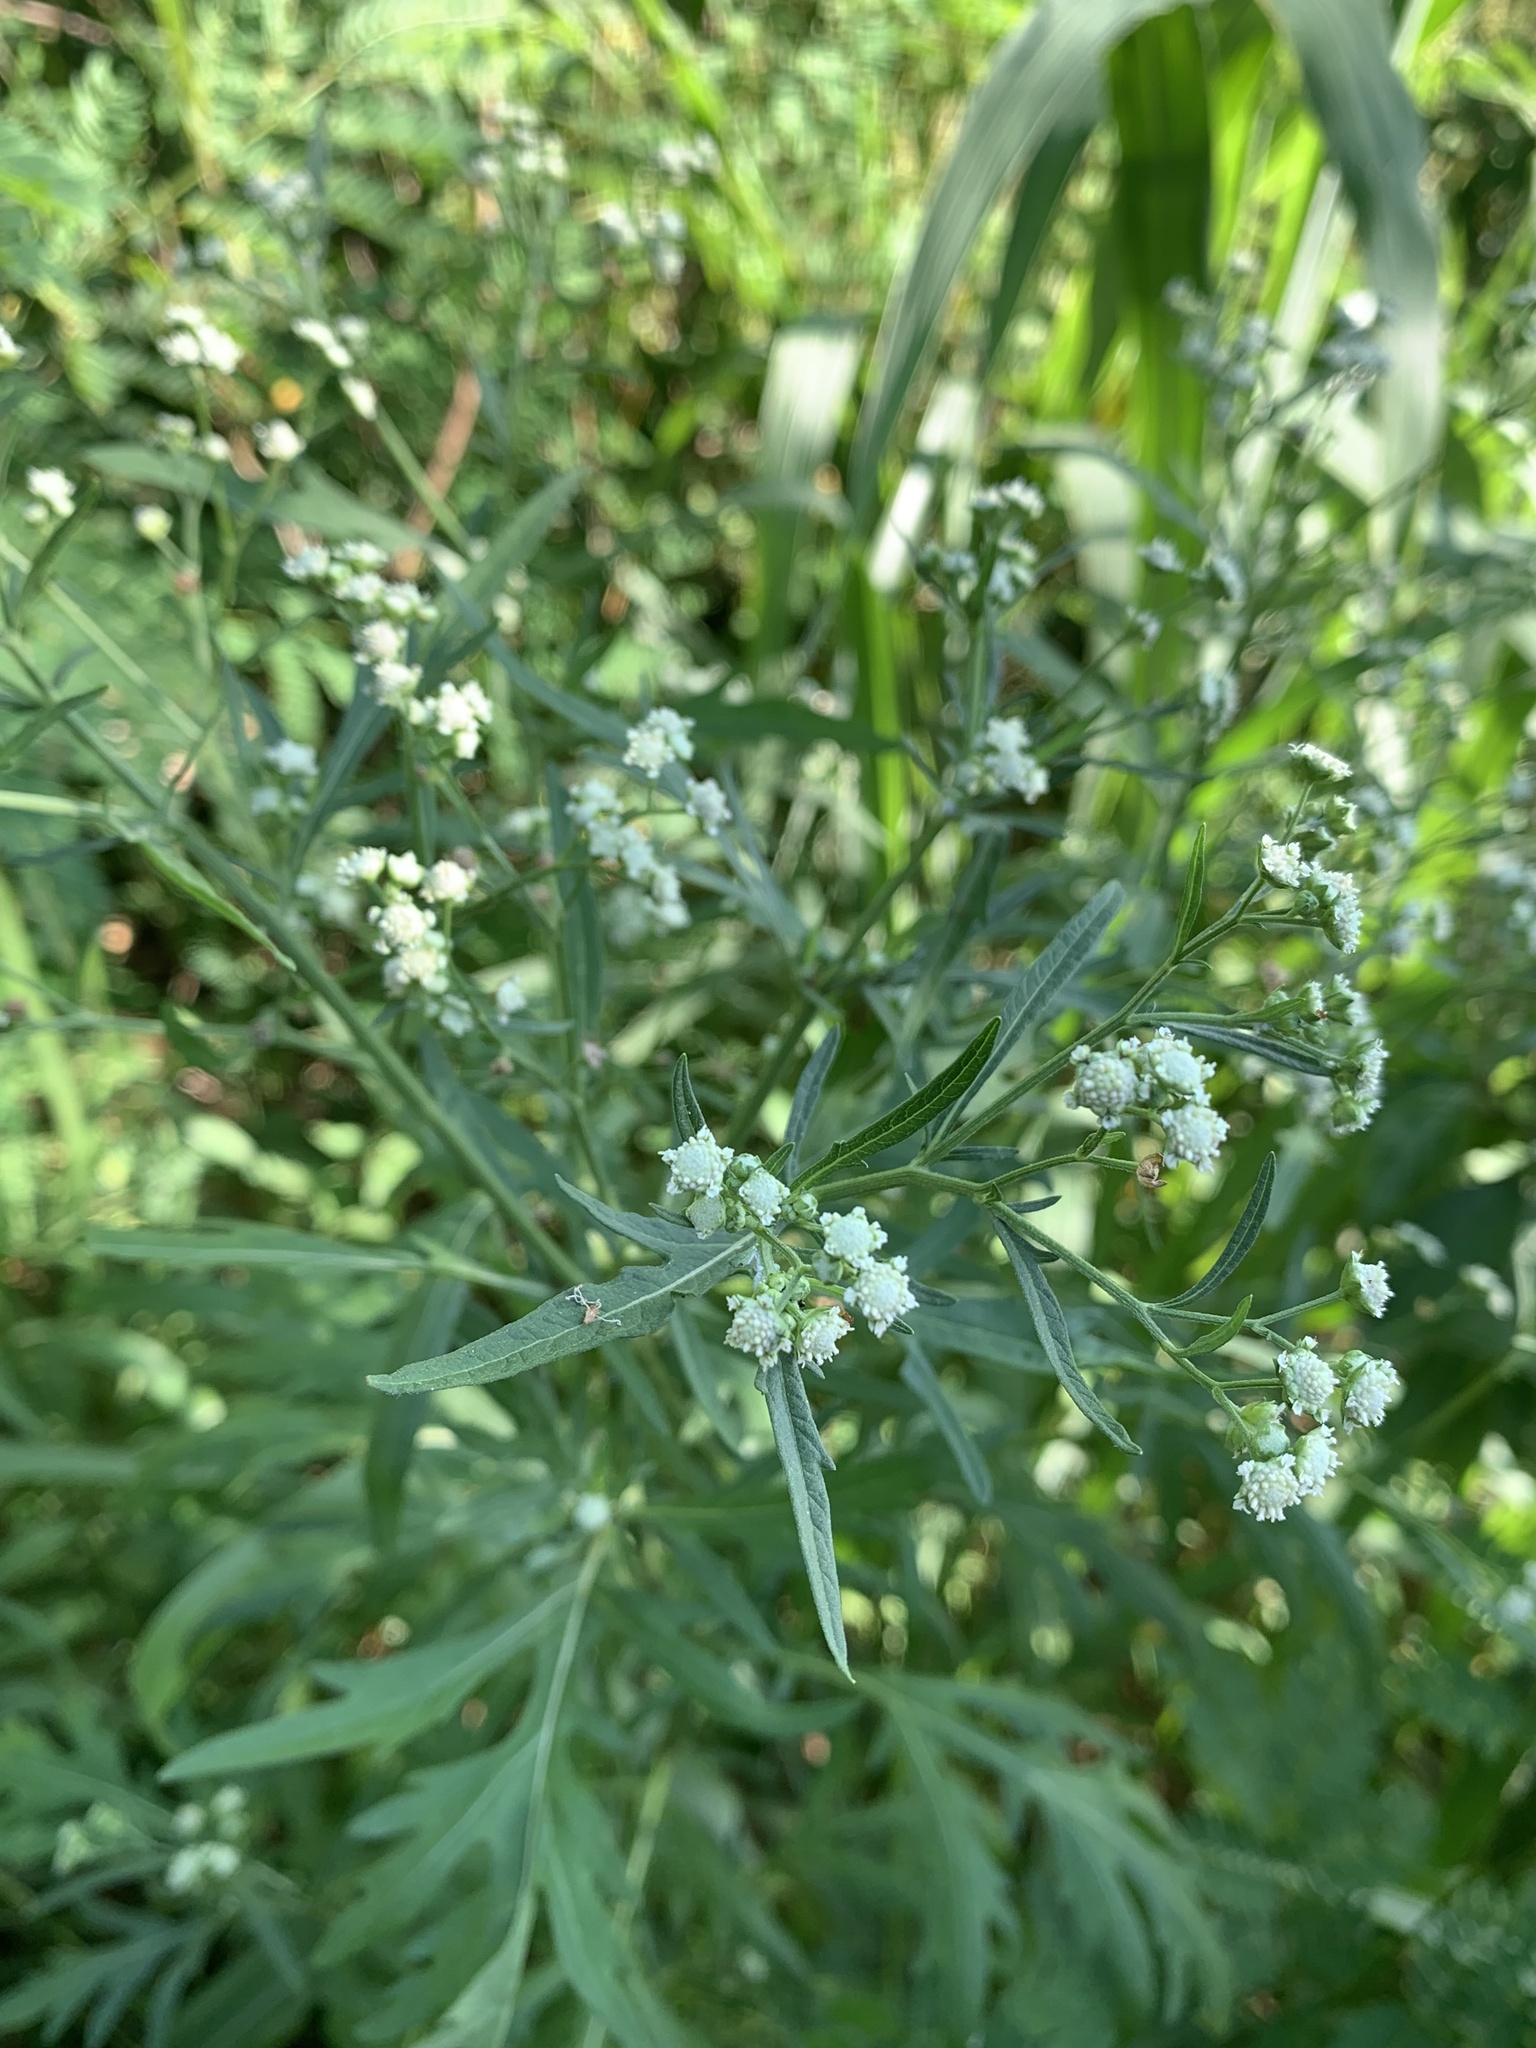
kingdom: Plantae
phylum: Tracheophyta
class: Magnoliopsida
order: Asterales
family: Asteraceae
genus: Parthenium
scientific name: Parthenium hysterophorus
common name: Santa maria feverfew
